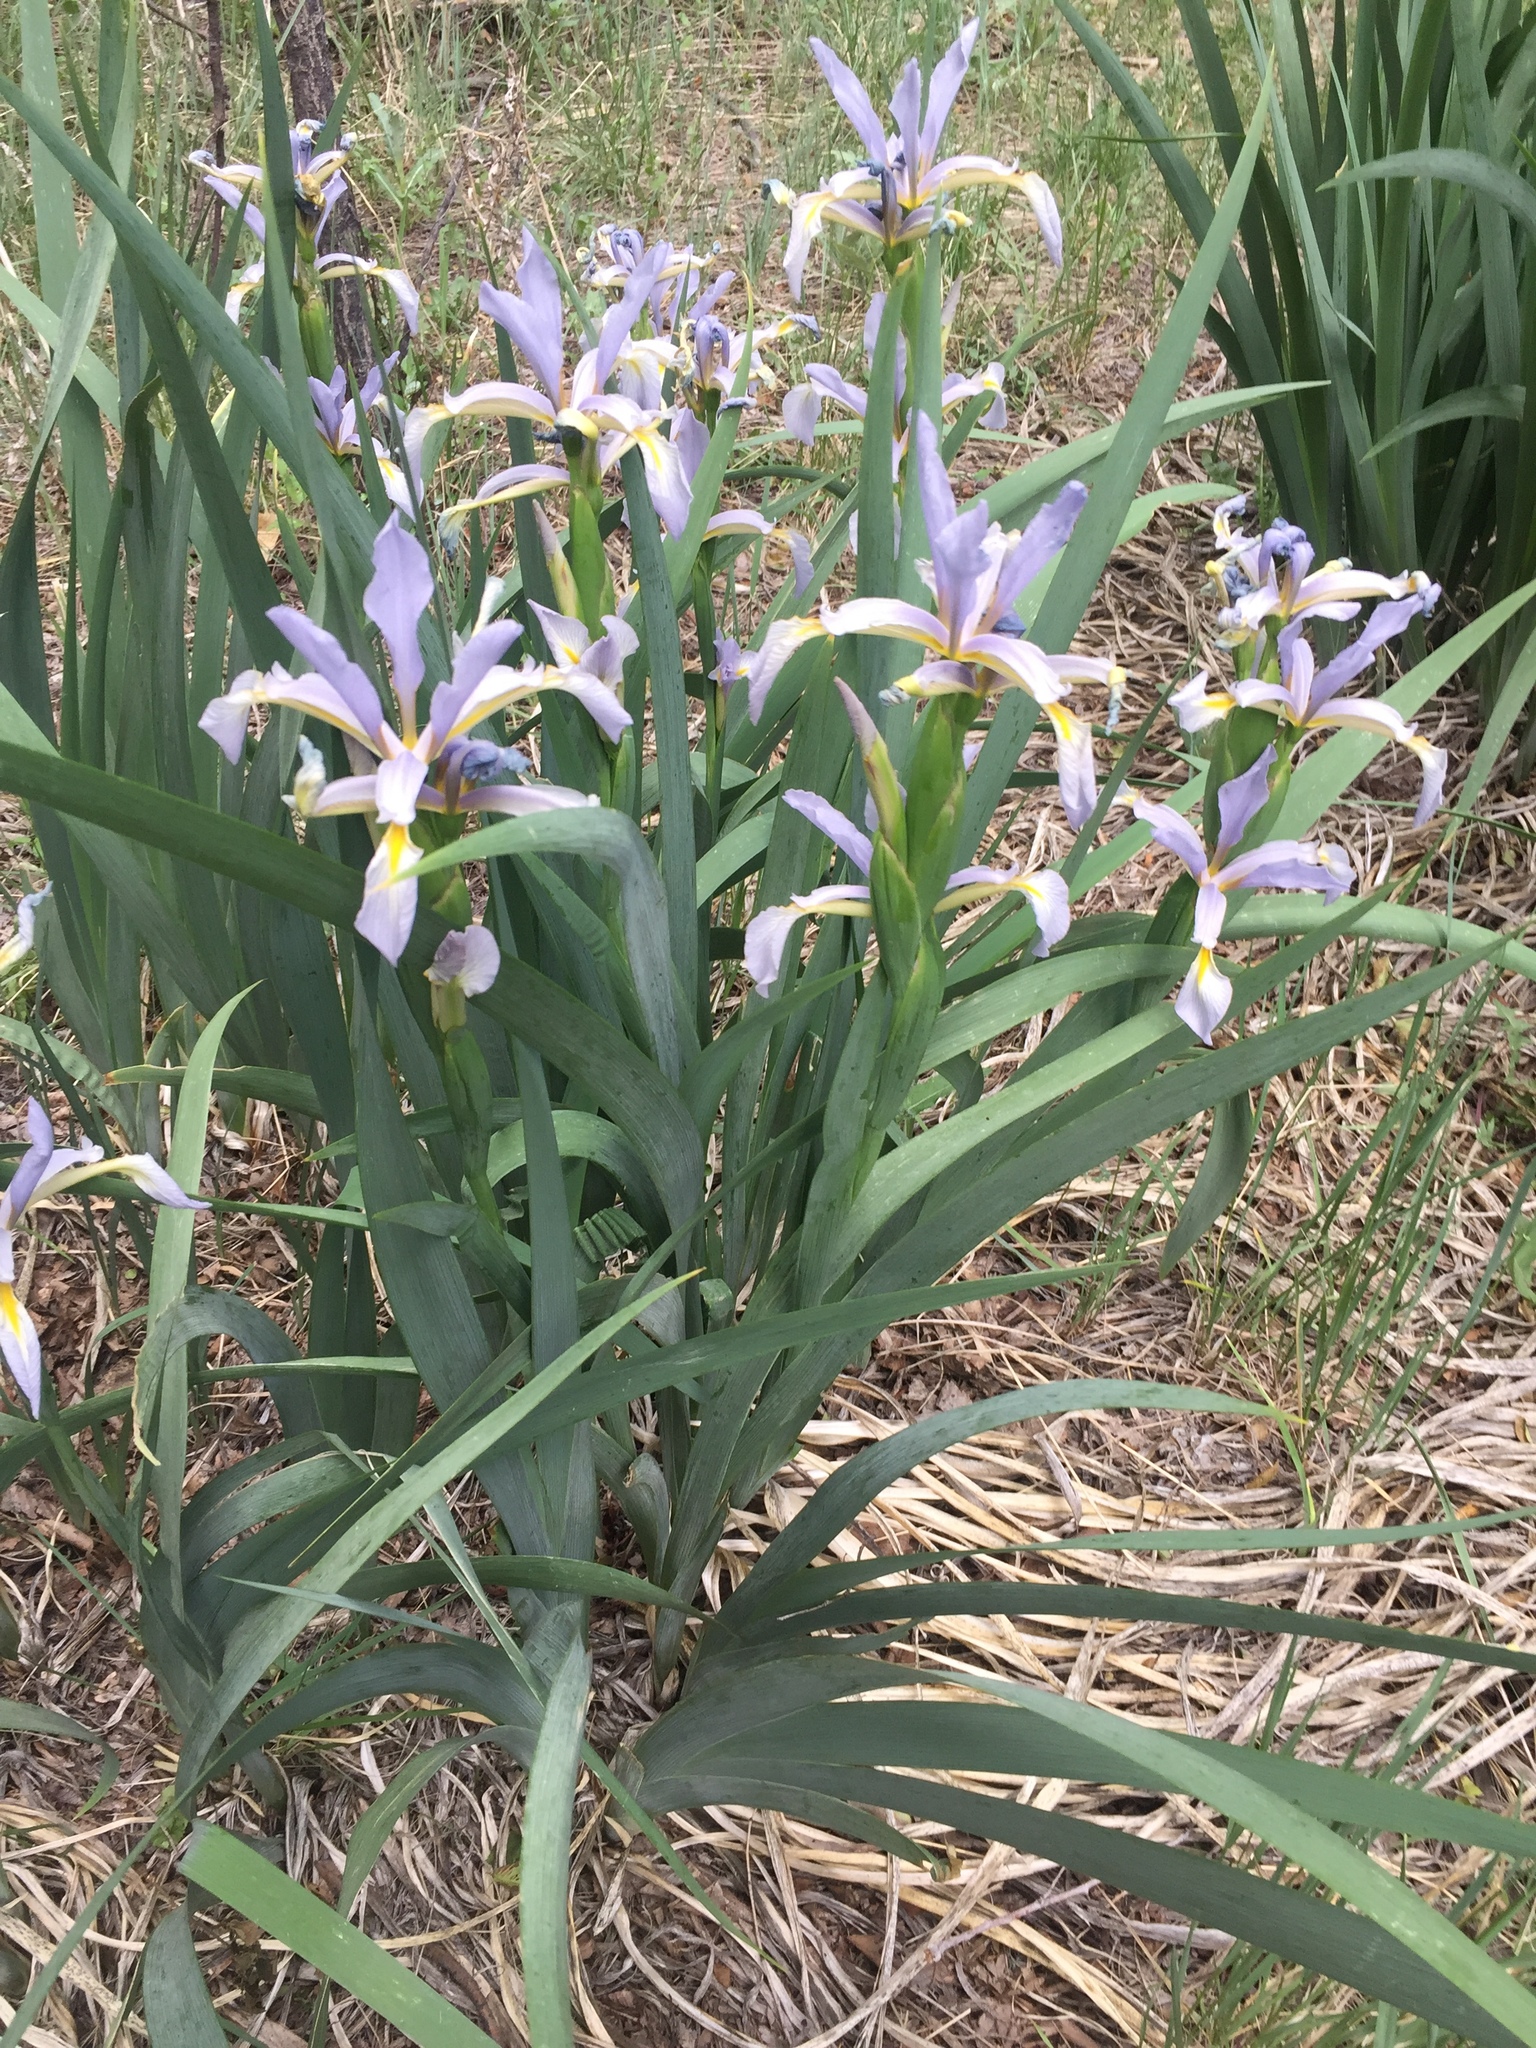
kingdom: Plantae
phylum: Tracheophyta
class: Liliopsida
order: Asparagales
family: Iridaceae
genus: Iris
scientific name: Iris missouriensis
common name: Rocky mountain iris
